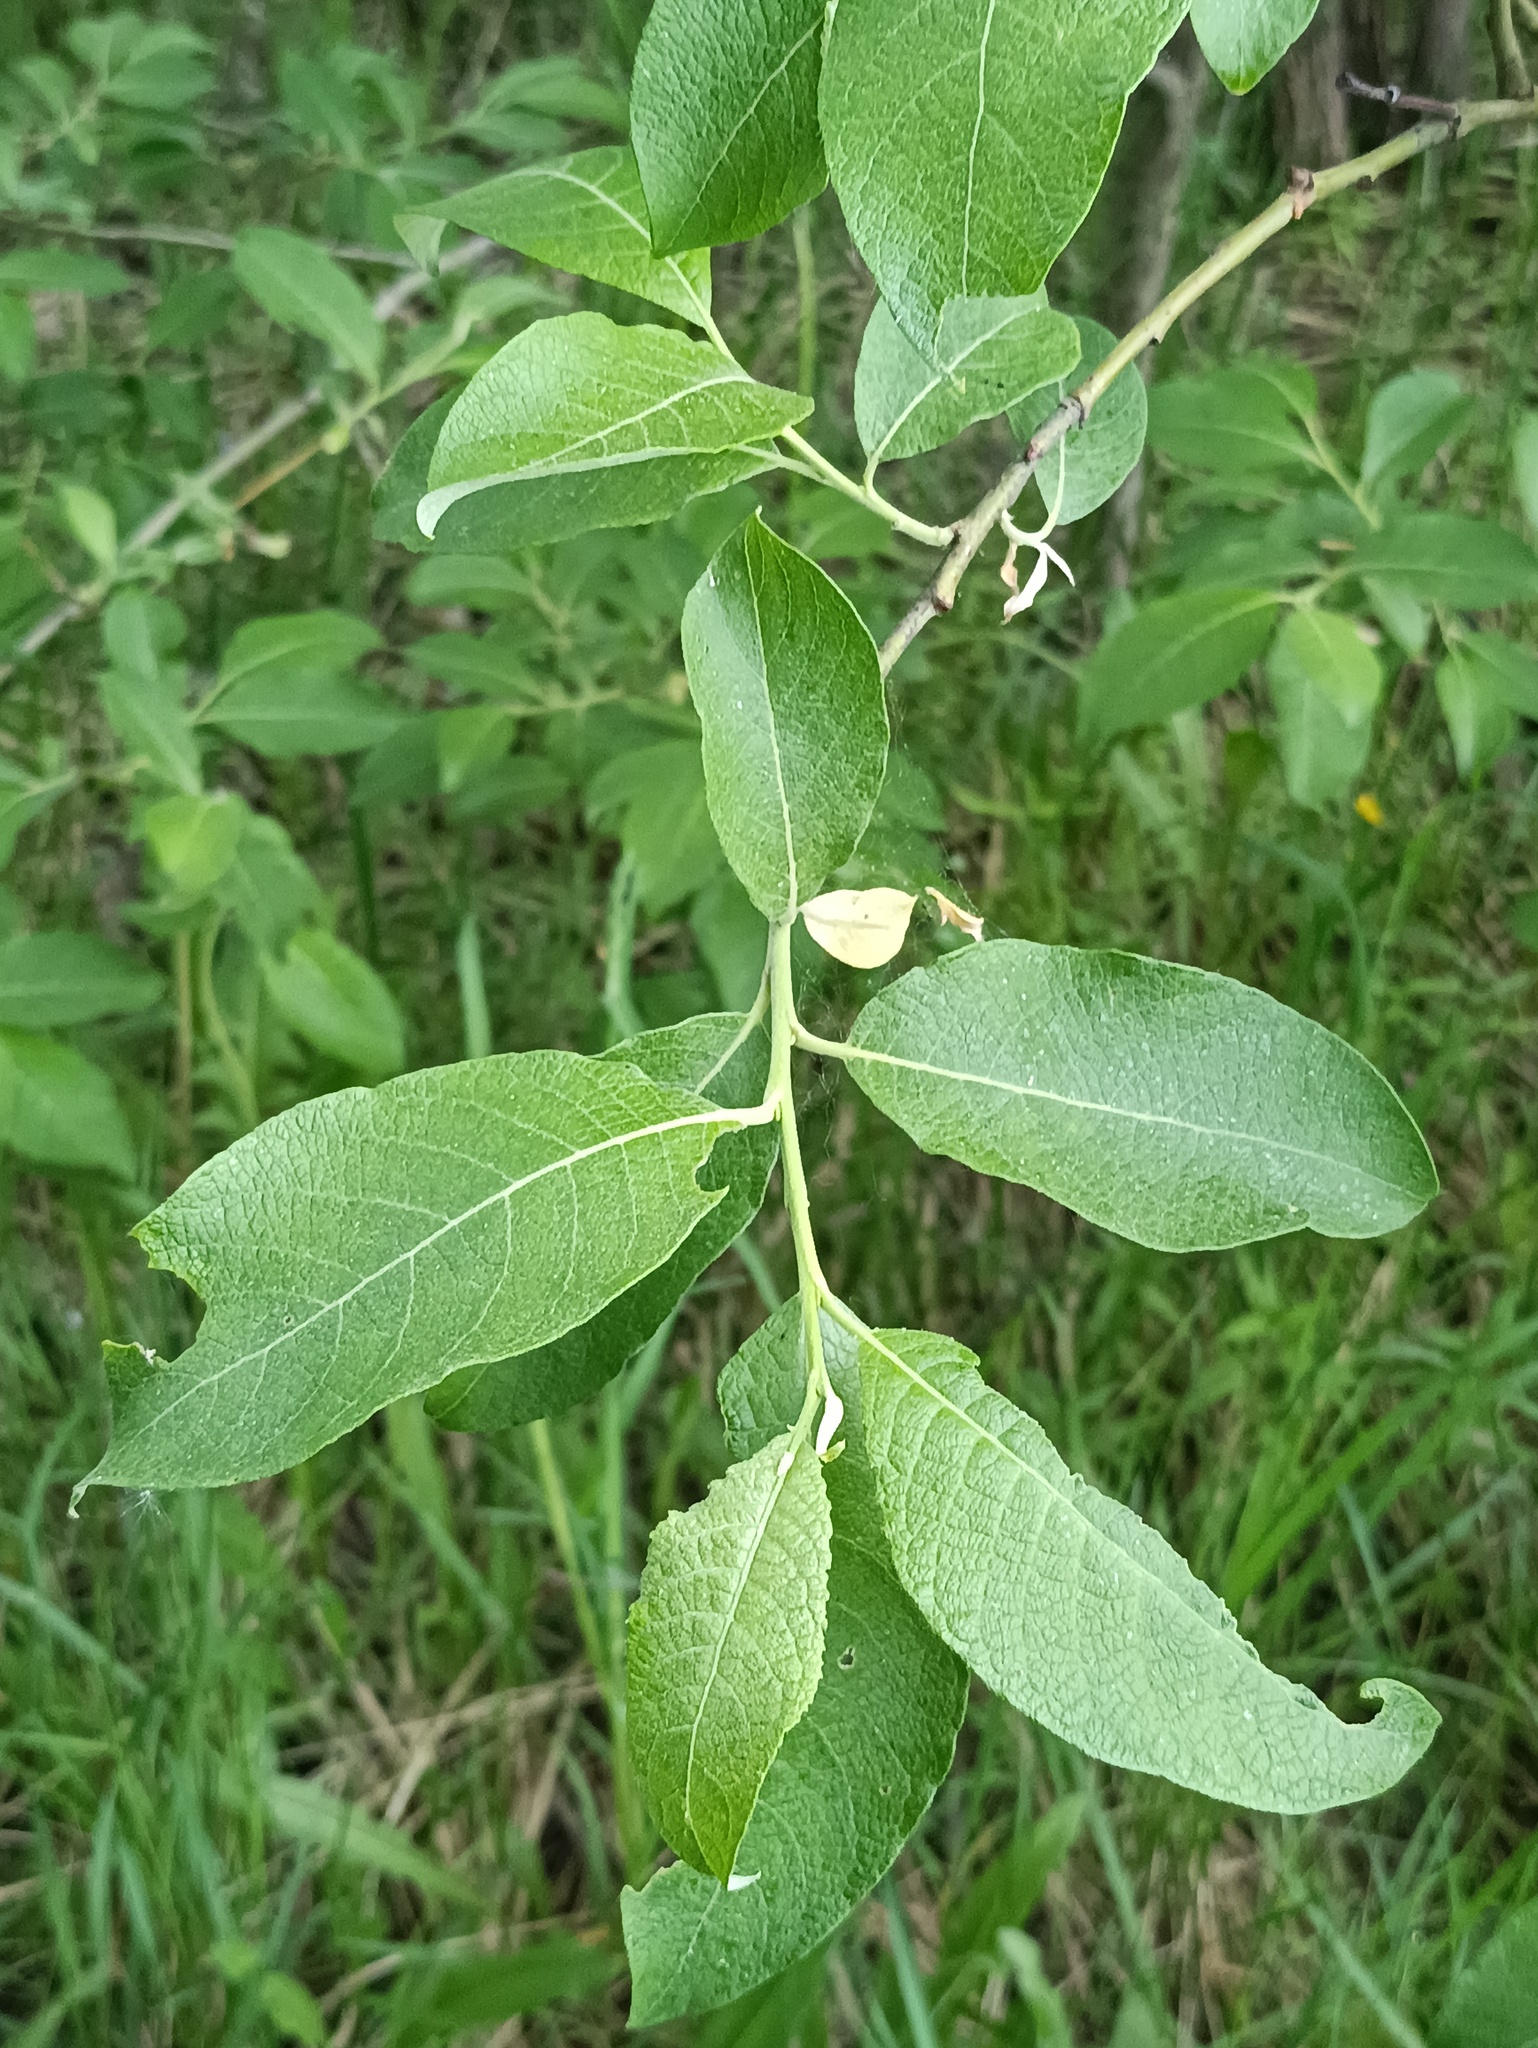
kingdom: Plantae
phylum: Tracheophyta
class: Magnoliopsida
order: Malpighiales
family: Salicaceae
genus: Salix
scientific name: Salix caprea
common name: Goat willow
